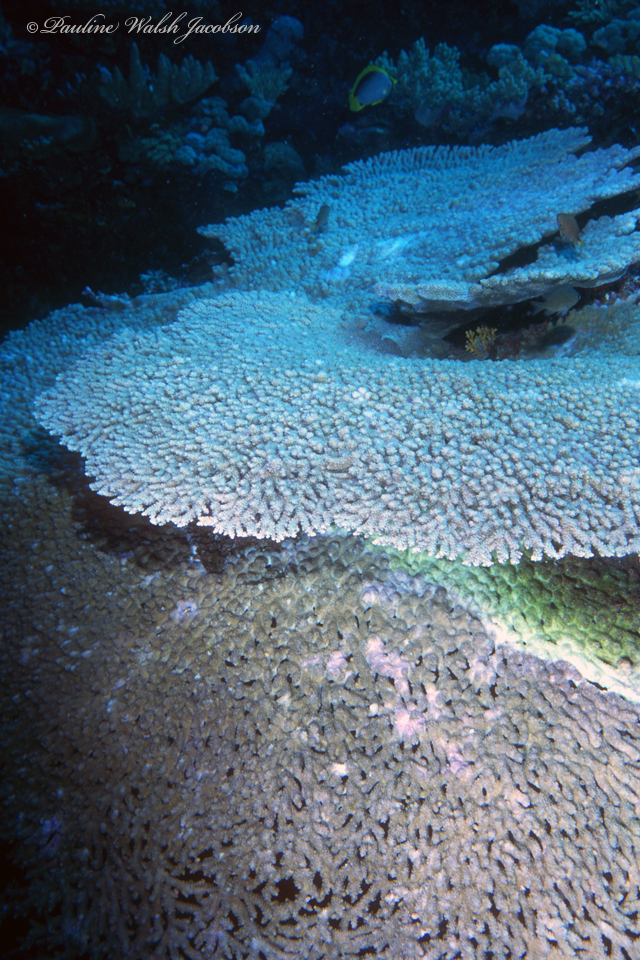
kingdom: Animalia
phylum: Cnidaria
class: Anthozoa
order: Scleractinia
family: Acroporidae
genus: Acropora
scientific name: Acropora clathrata
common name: Plate coral
